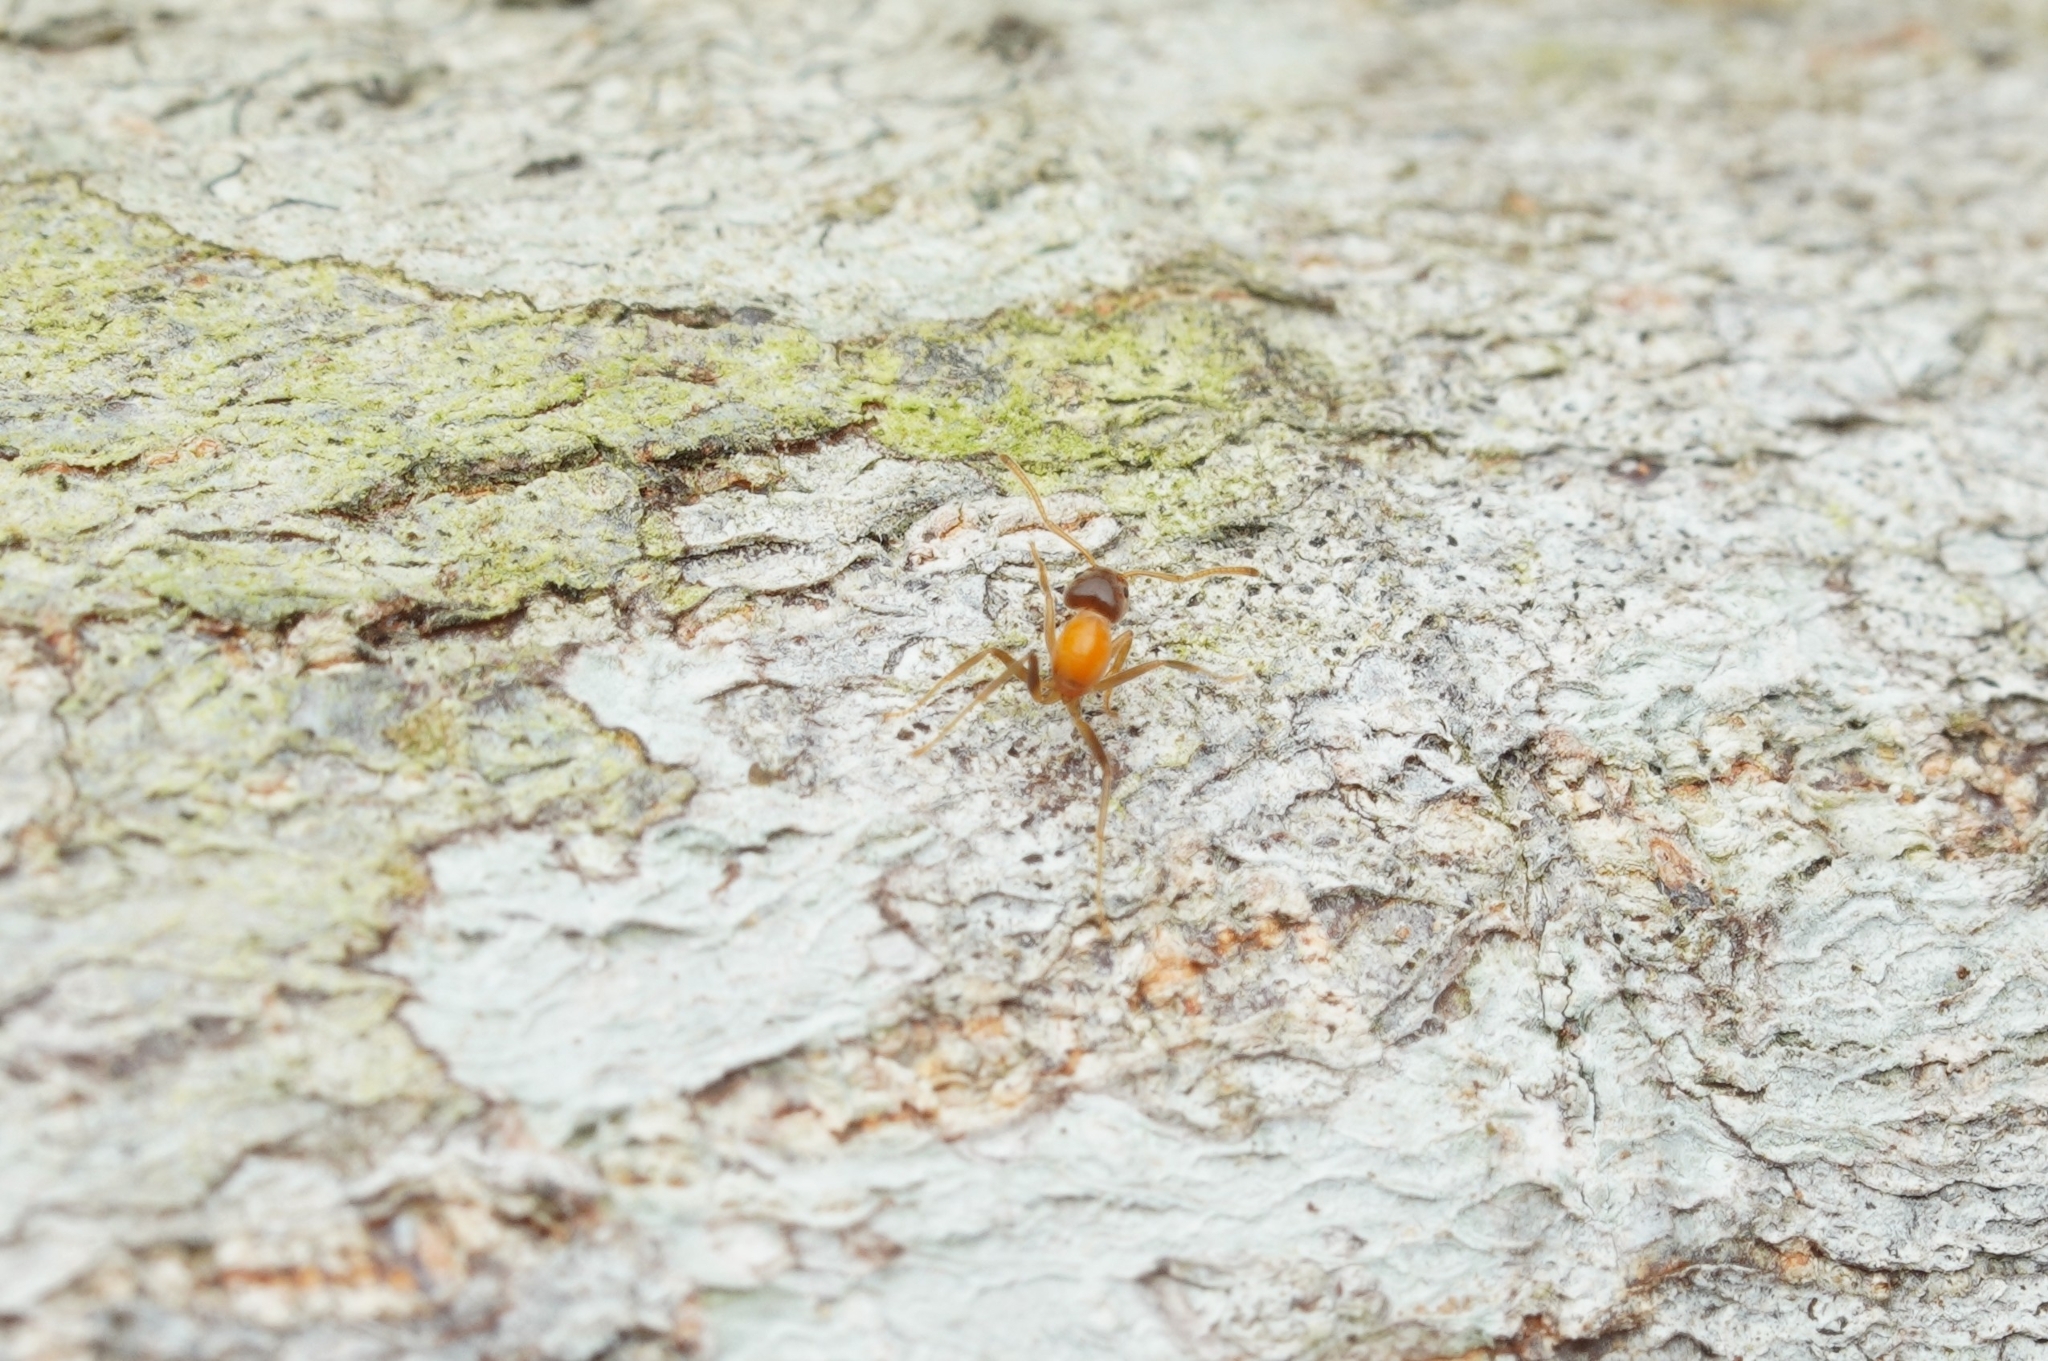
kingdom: Animalia
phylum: Arthropoda
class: Insecta
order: Hymenoptera
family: Formicidae
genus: Azteca
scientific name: Azteca delpini
